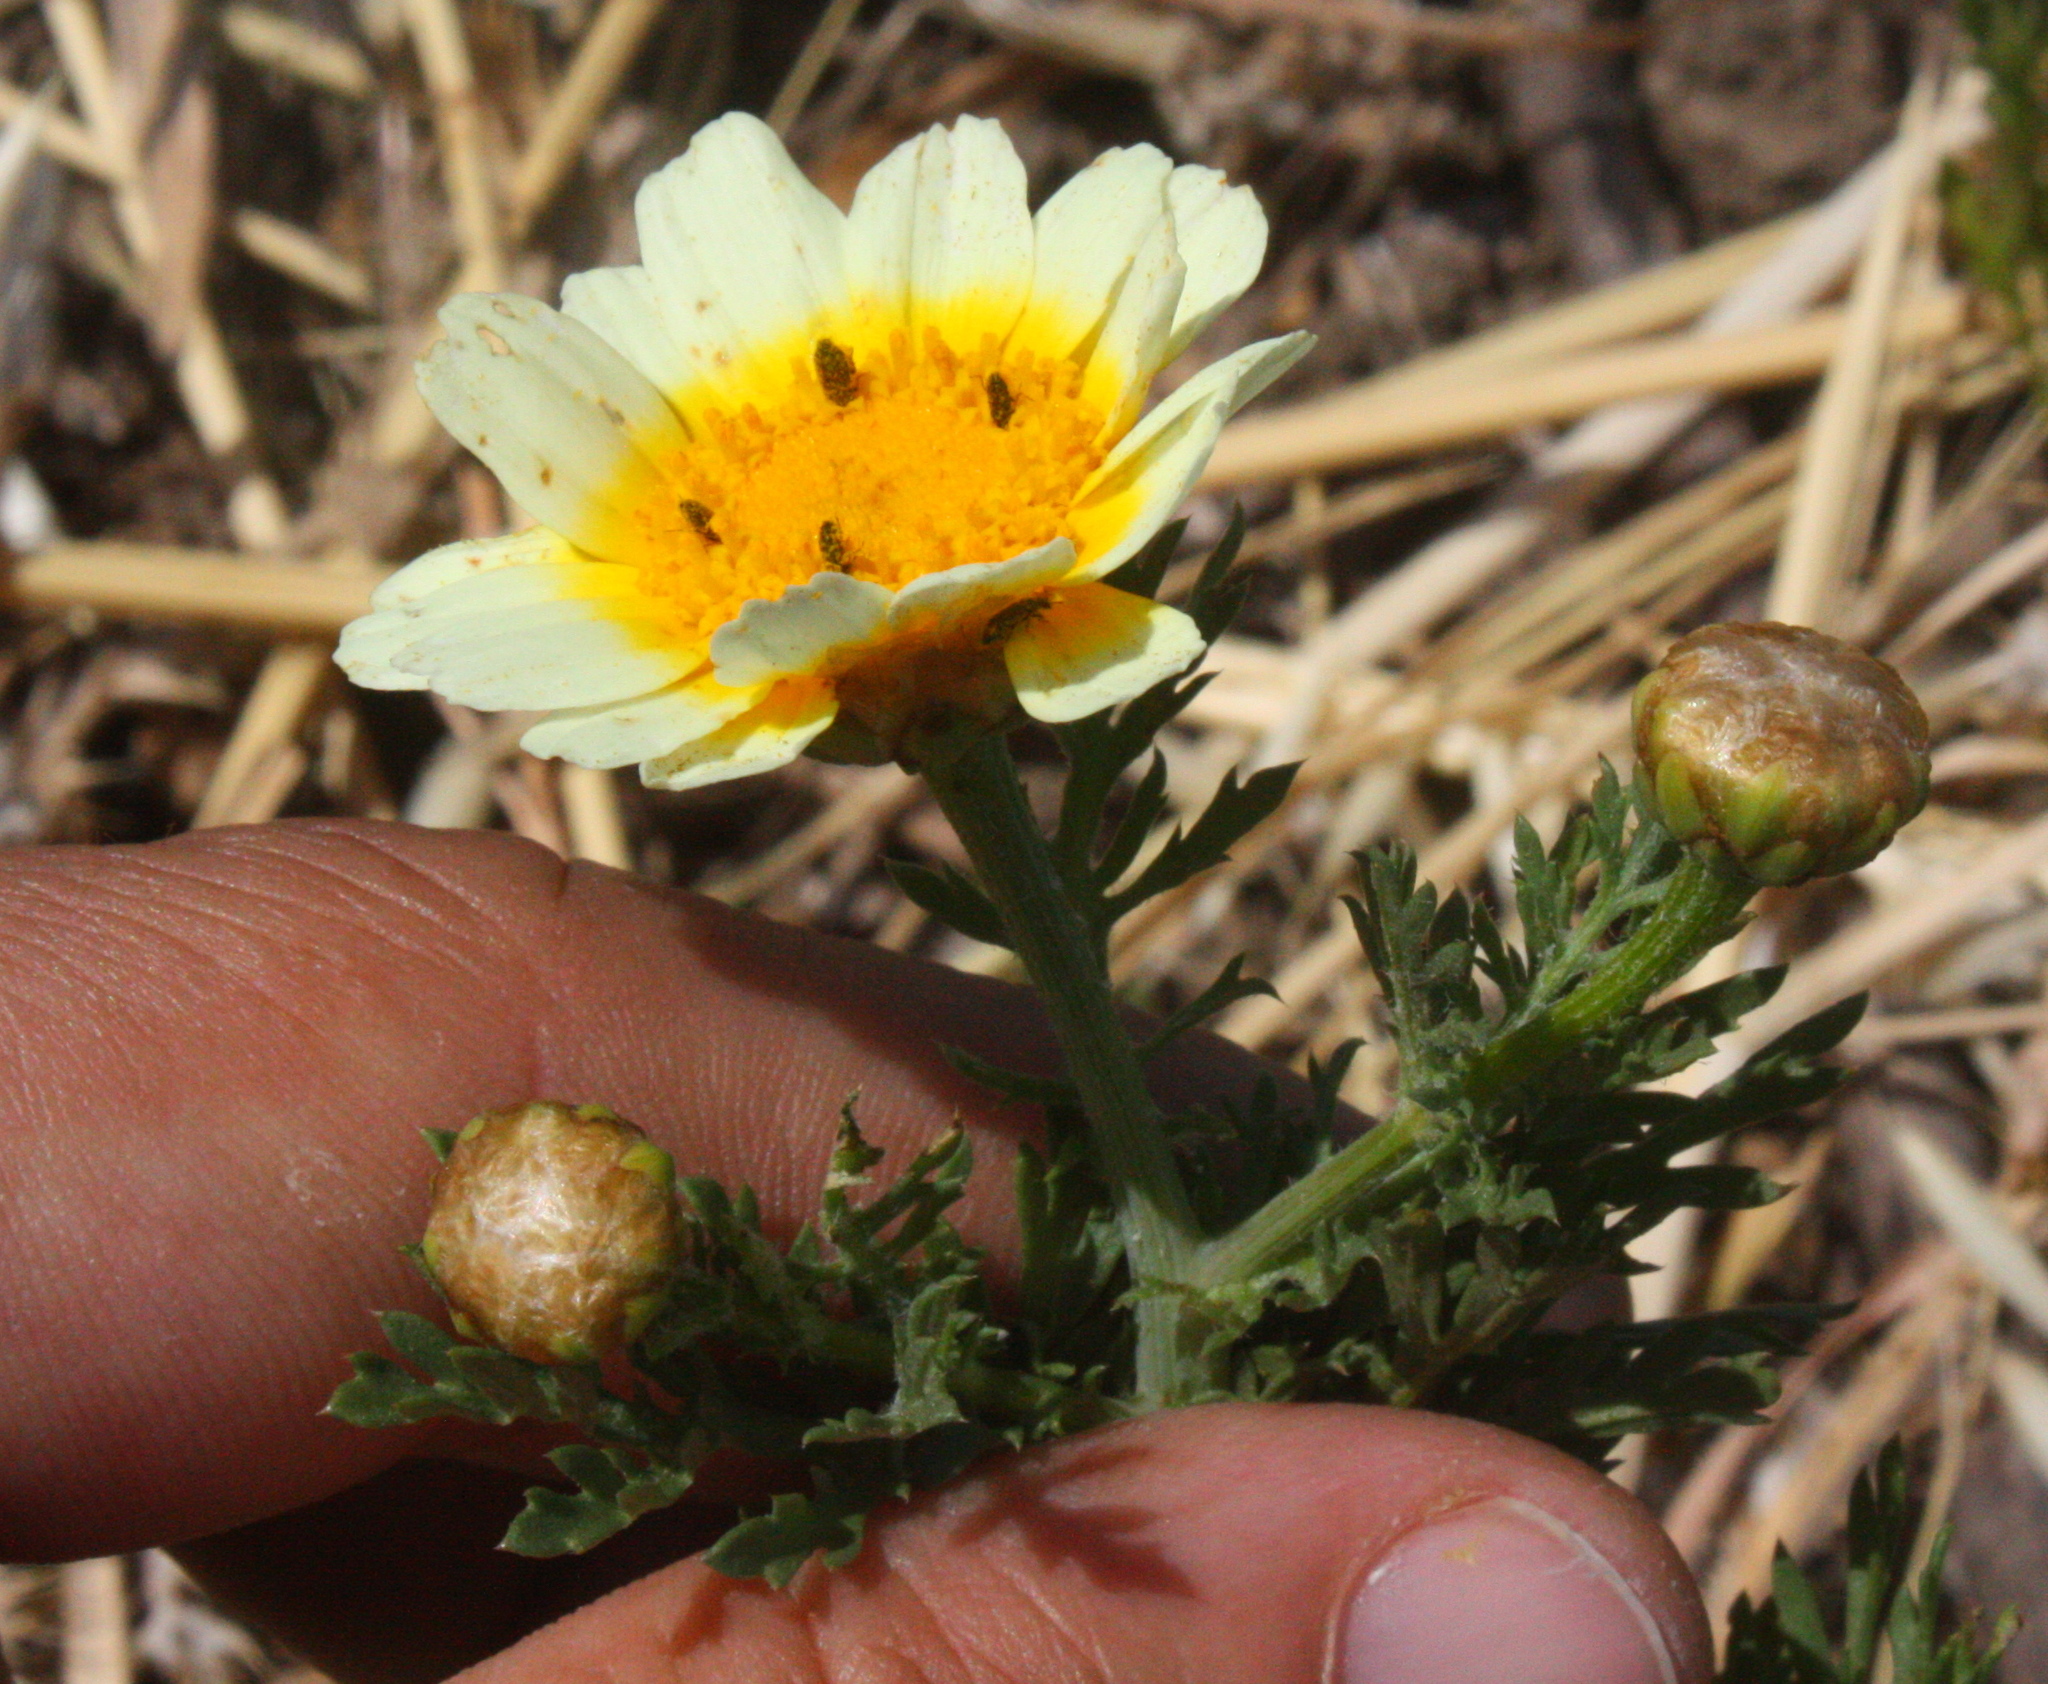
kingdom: Plantae
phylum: Tracheophyta
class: Magnoliopsida
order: Asterales
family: Asteraceae
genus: Glebionis
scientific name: Glebionis coronaria
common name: Crowndaisy
